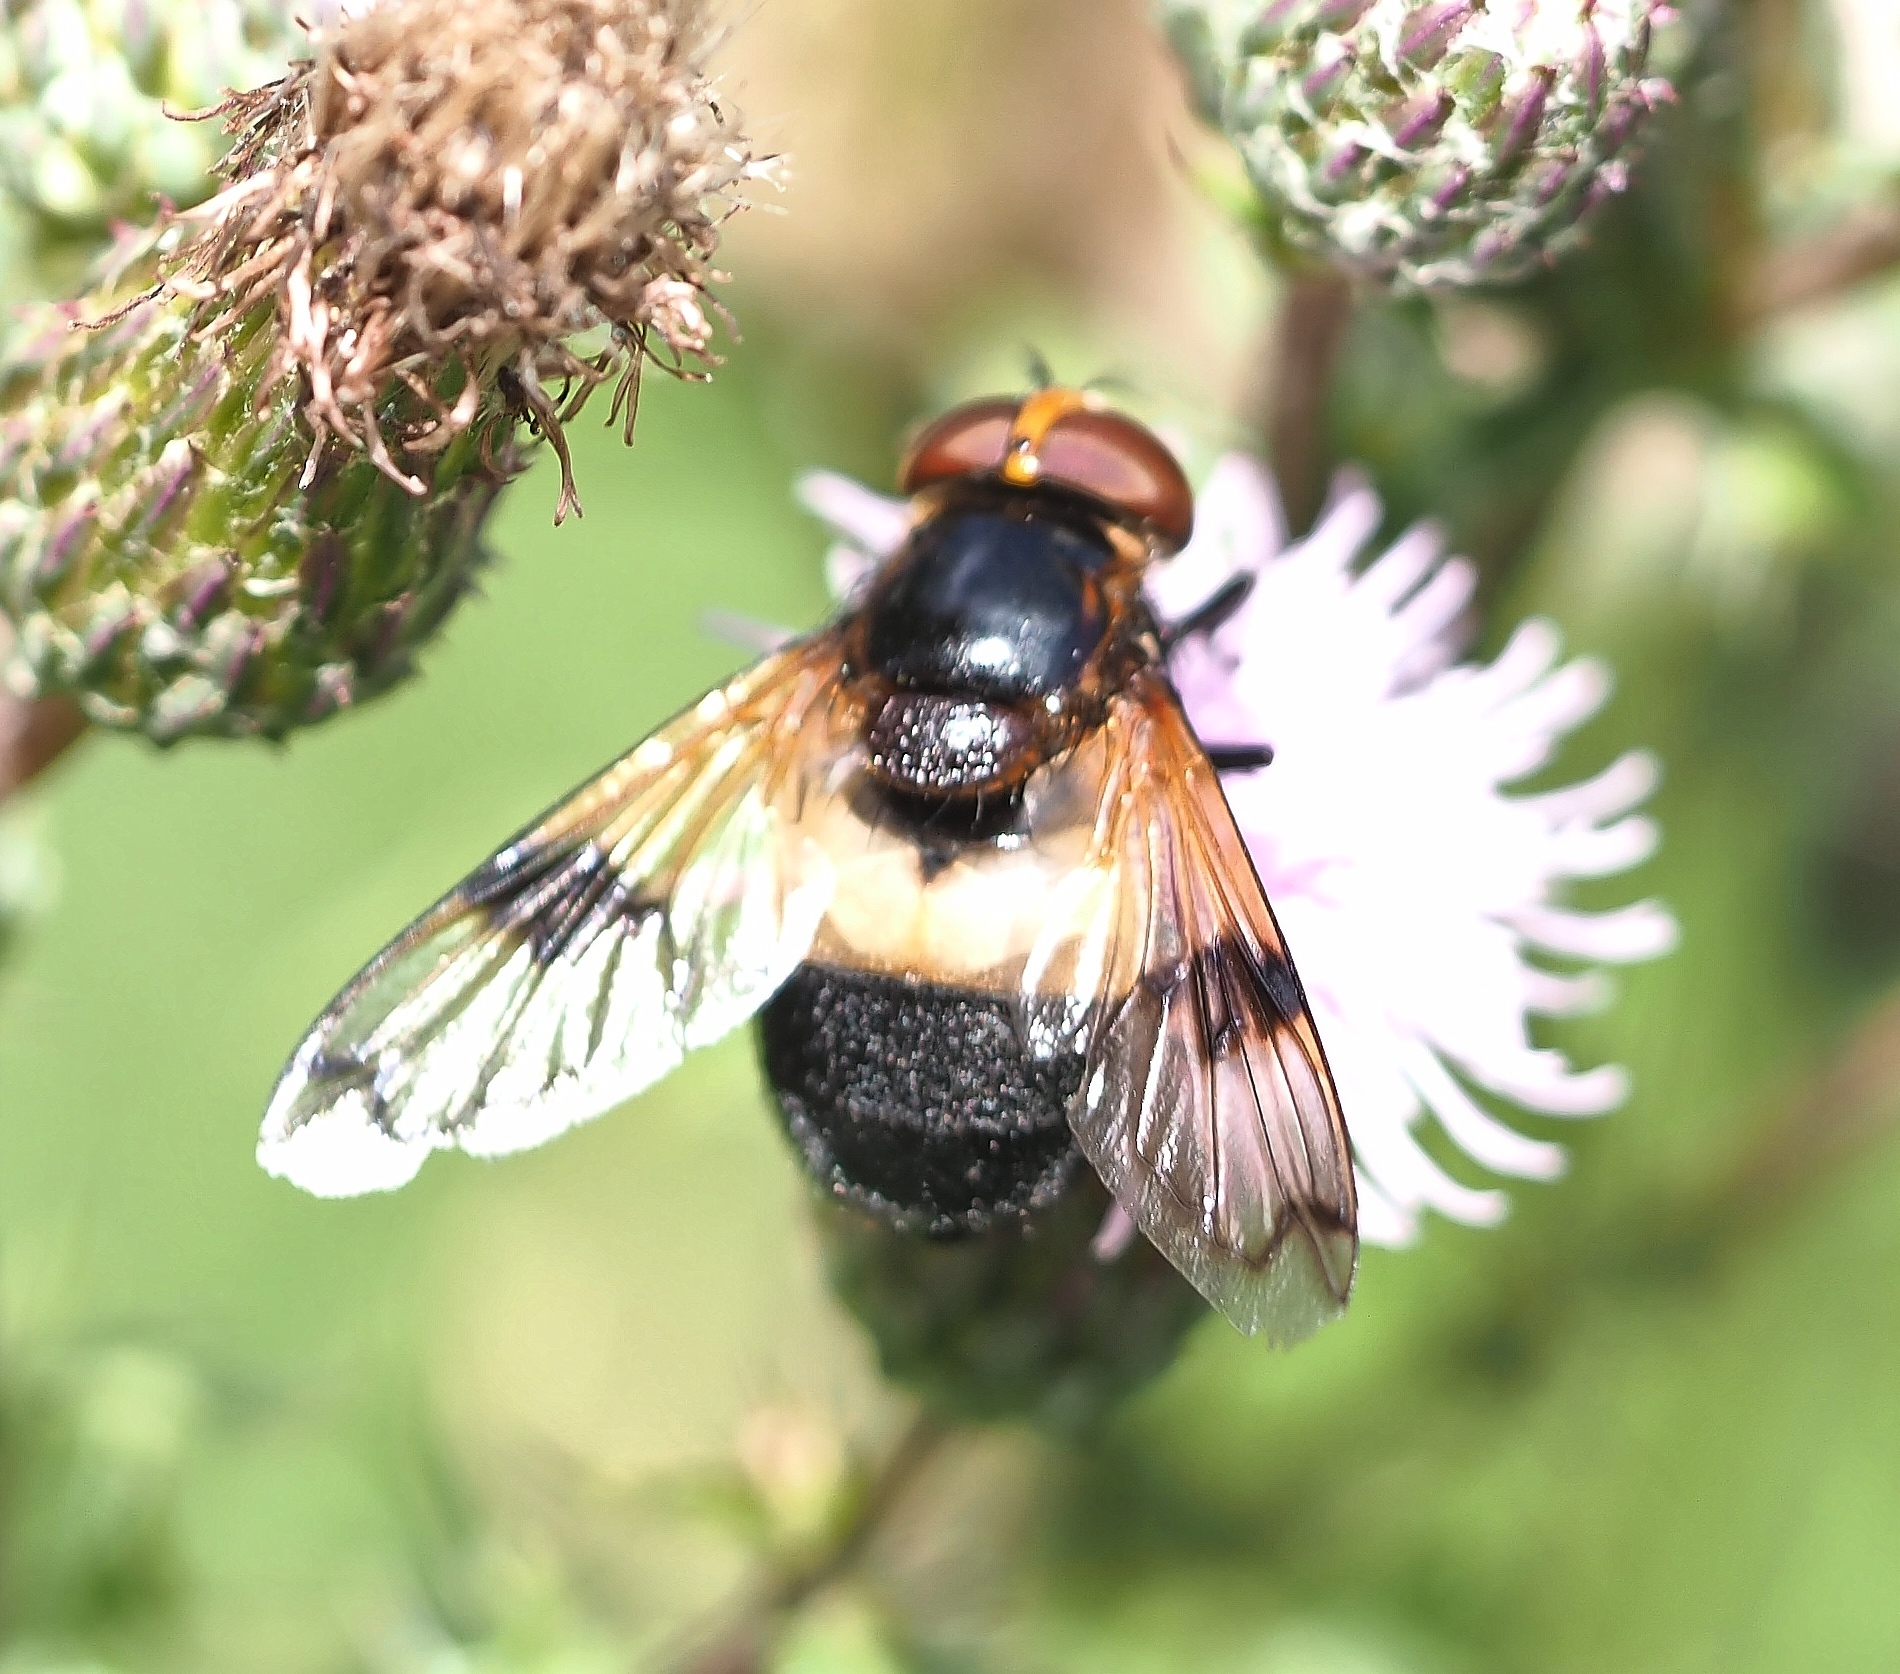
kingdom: Animalia
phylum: Arthropoda
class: Insecta
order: Diptera
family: Syrphidae
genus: Volucella
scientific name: Volucella pellucens
